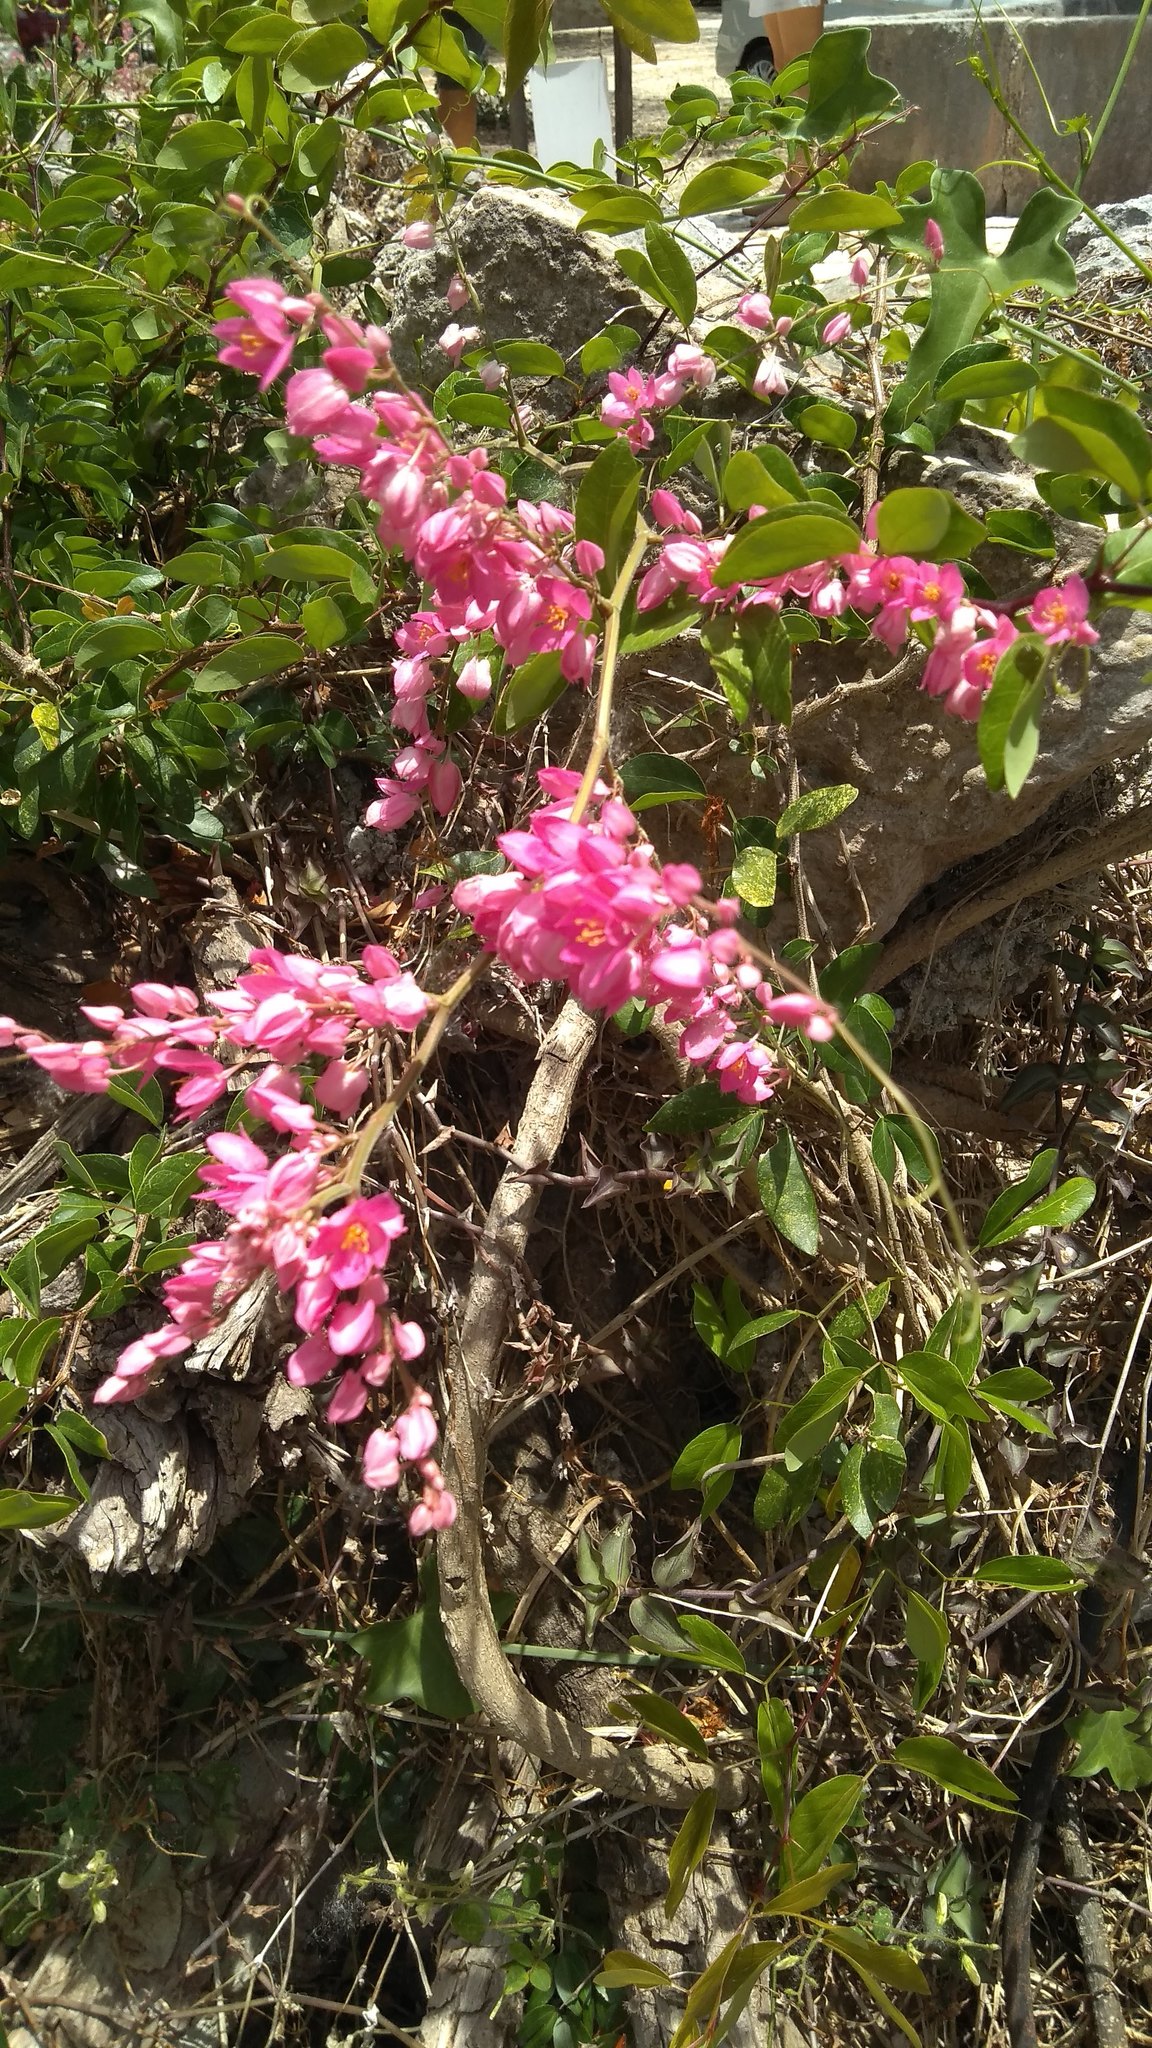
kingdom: Plantae
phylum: Tracheophyta
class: Magnoliopsida
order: Caryophyllales
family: Polygonaceae
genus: Antigonon
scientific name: Antigonon leptopus
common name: Coral vine
